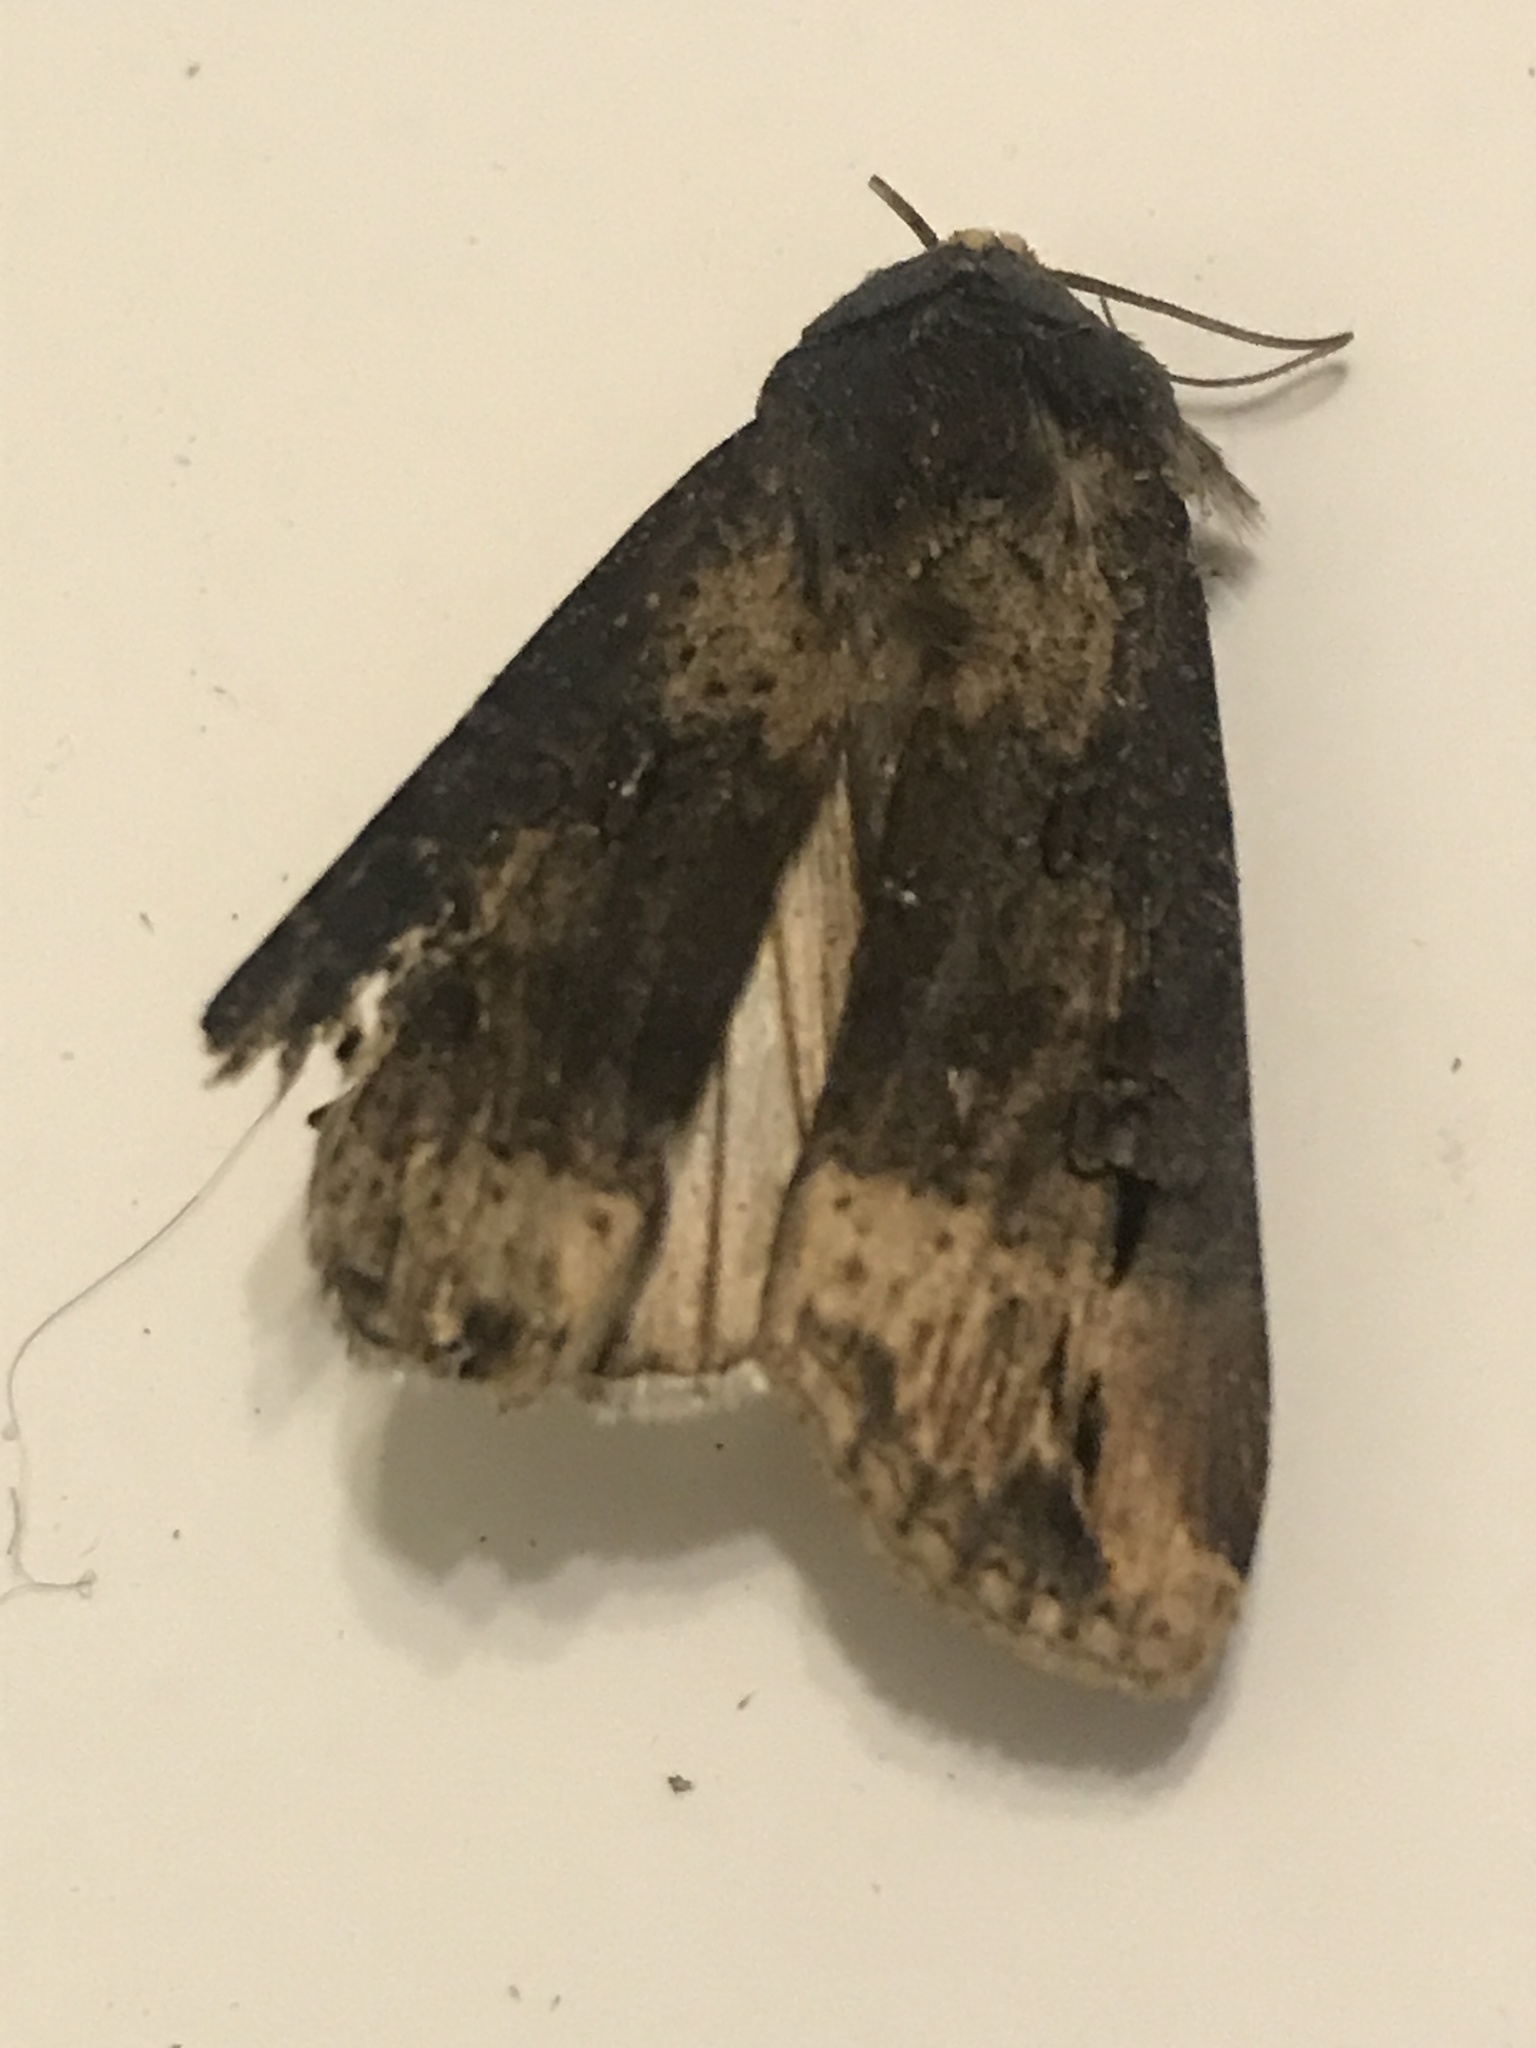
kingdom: Animalia
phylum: Arthropoda
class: Insecta
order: Lepidoptera
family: Noctuidae
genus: Agrotis
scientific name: Agrotis ipsilon
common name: Dark sword-grass
